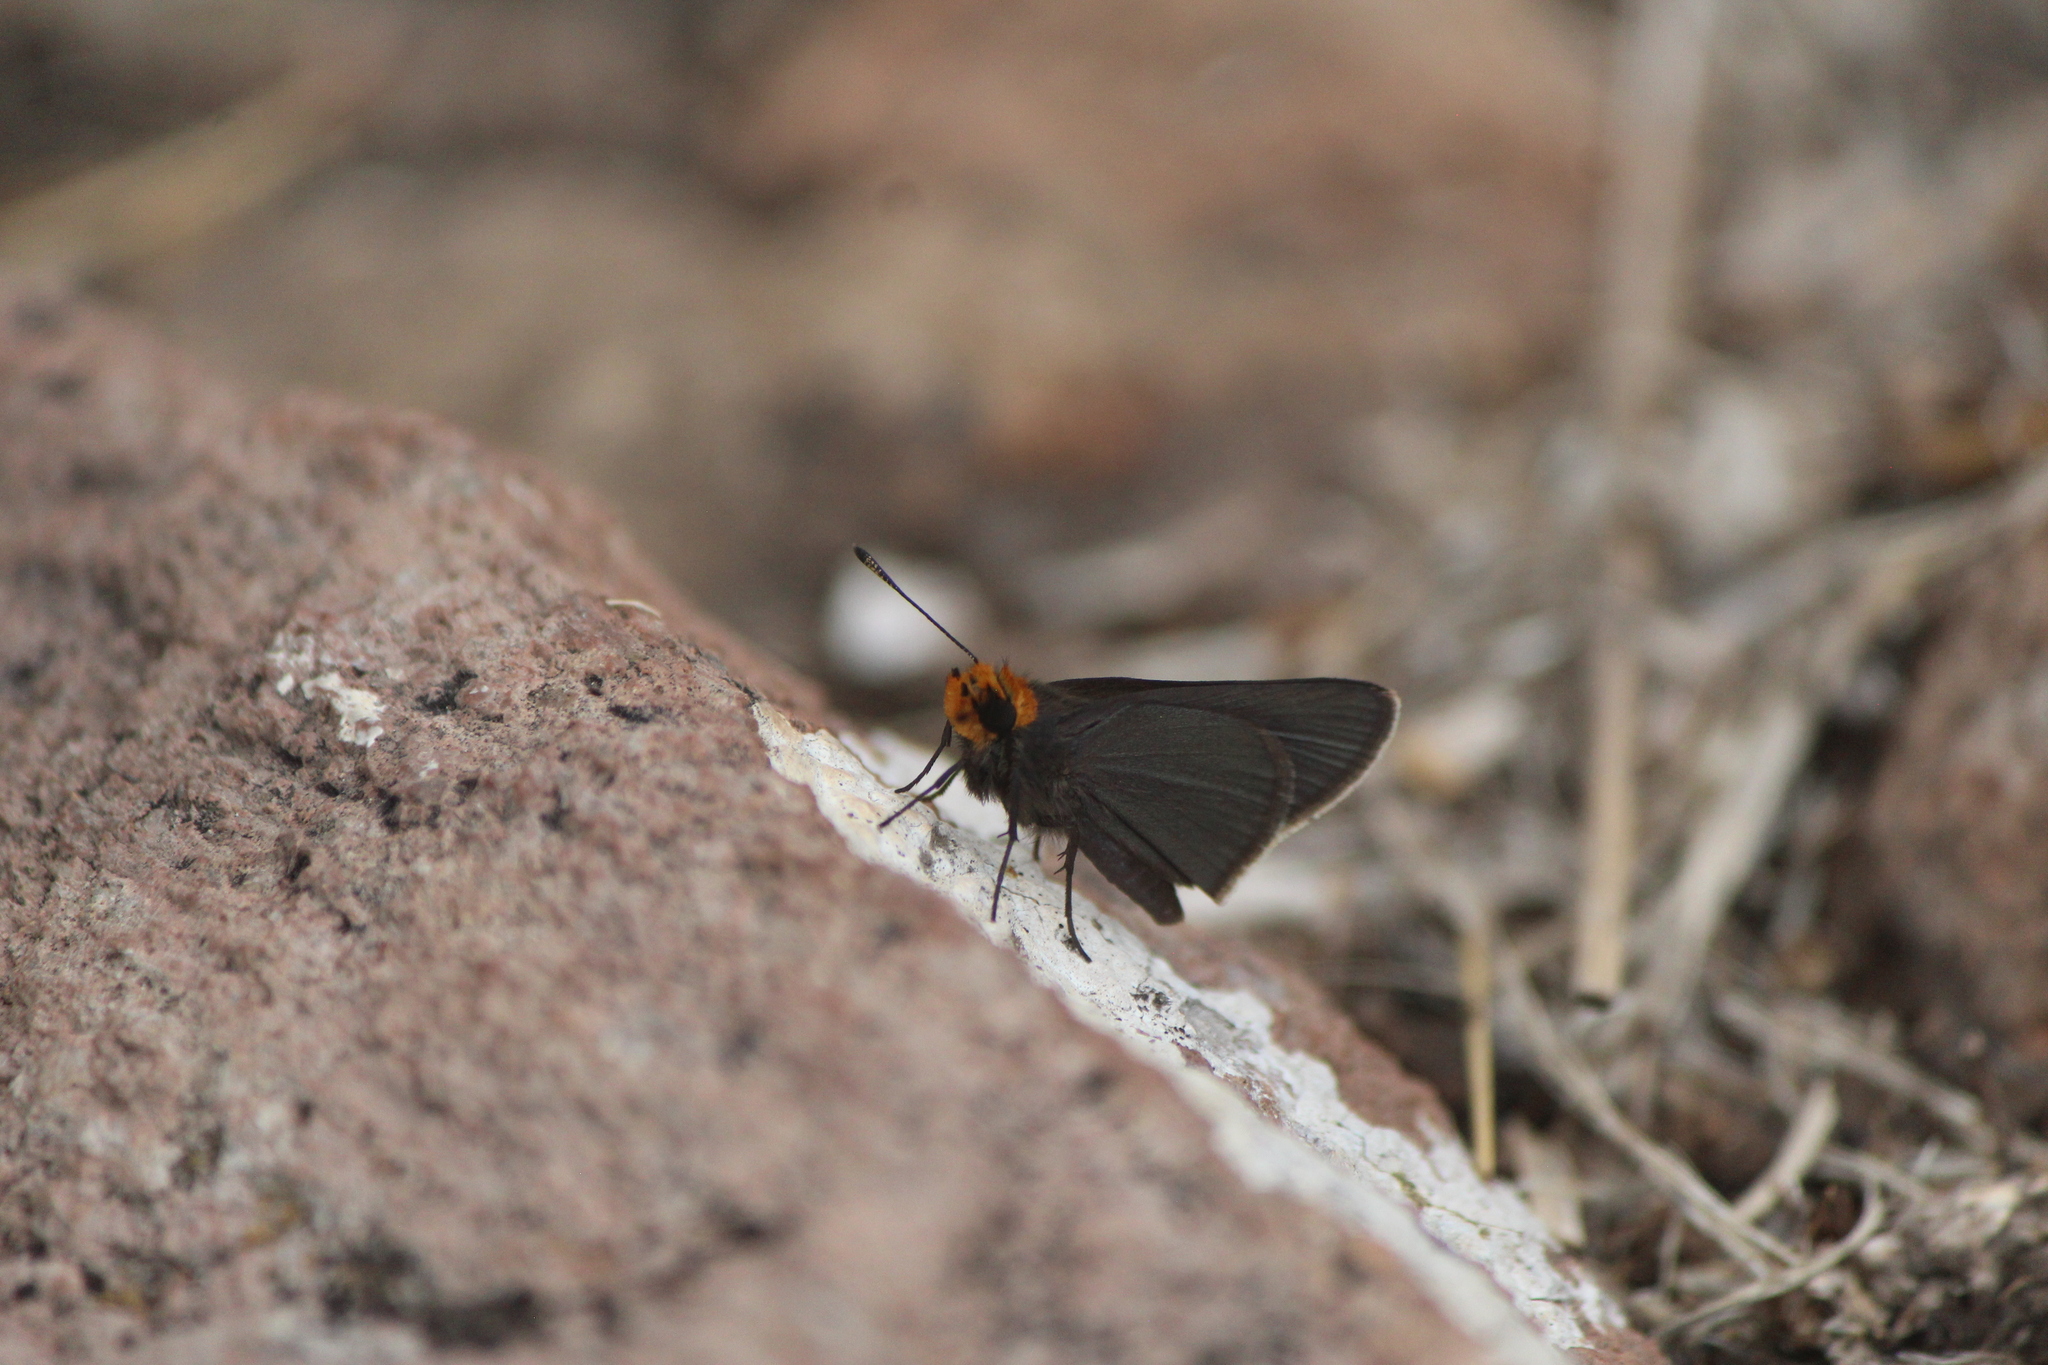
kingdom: Animalia
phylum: Arthropoda
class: Insecta
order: Lepidoptera
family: Hesperiidae
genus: Mastor
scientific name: Mastor phylace
